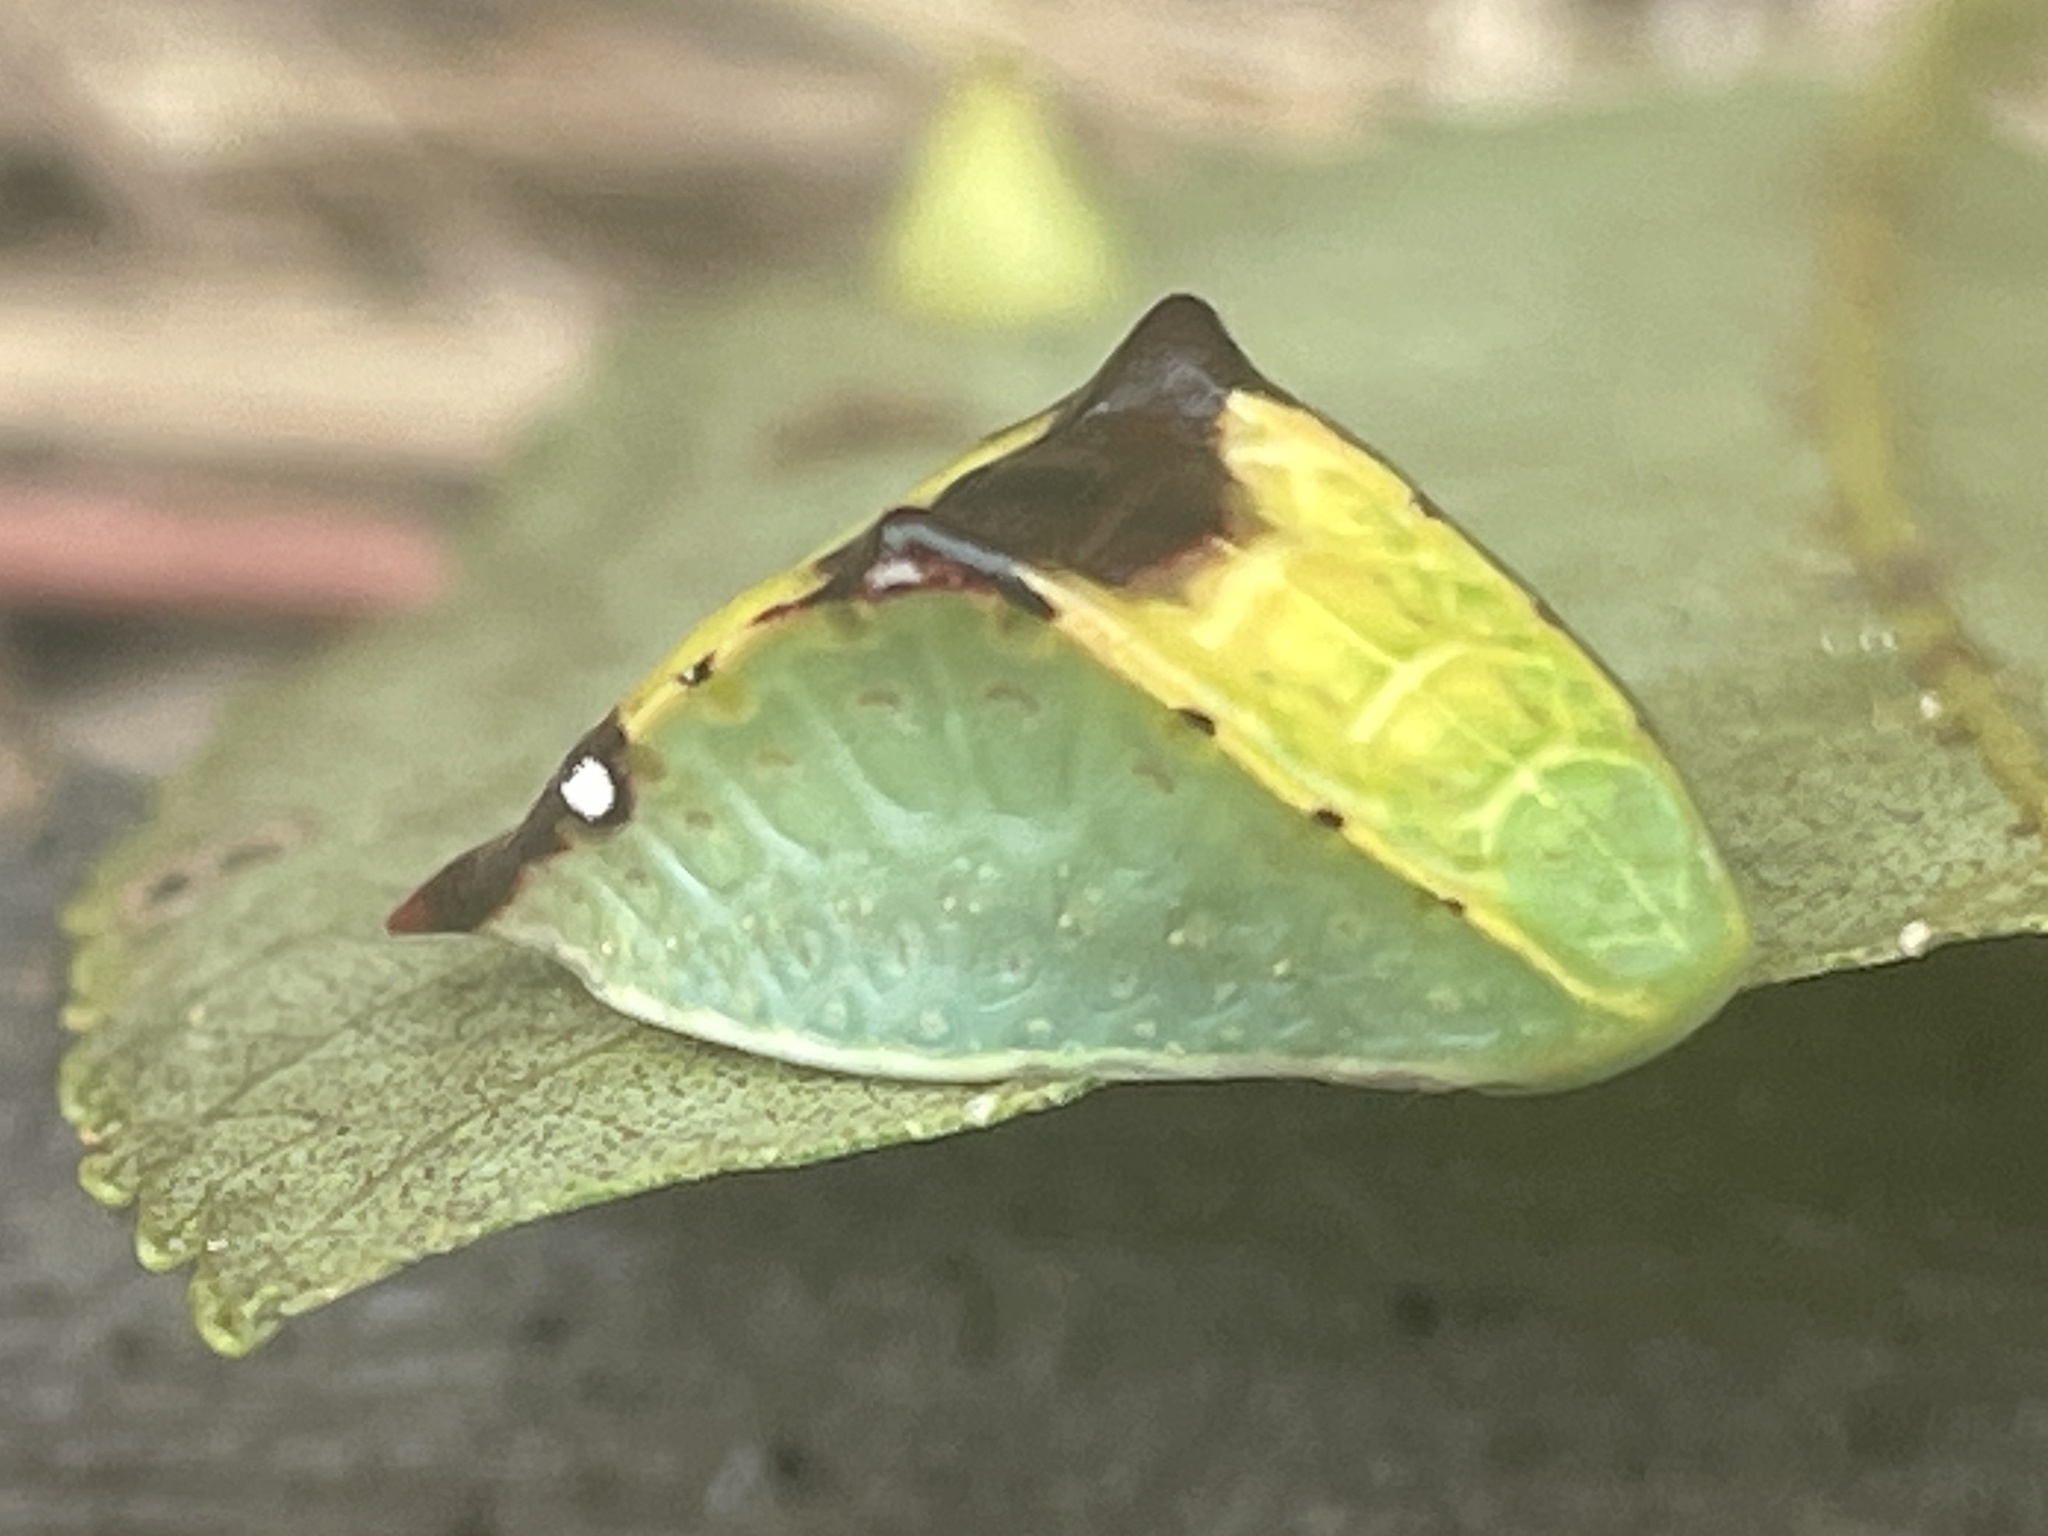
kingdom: Animalia
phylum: Arthropoda
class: Insecta
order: Lepidoptera
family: Limacodidae
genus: Prolimacodes
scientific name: Prolimacodes badia
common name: Skiff moth
